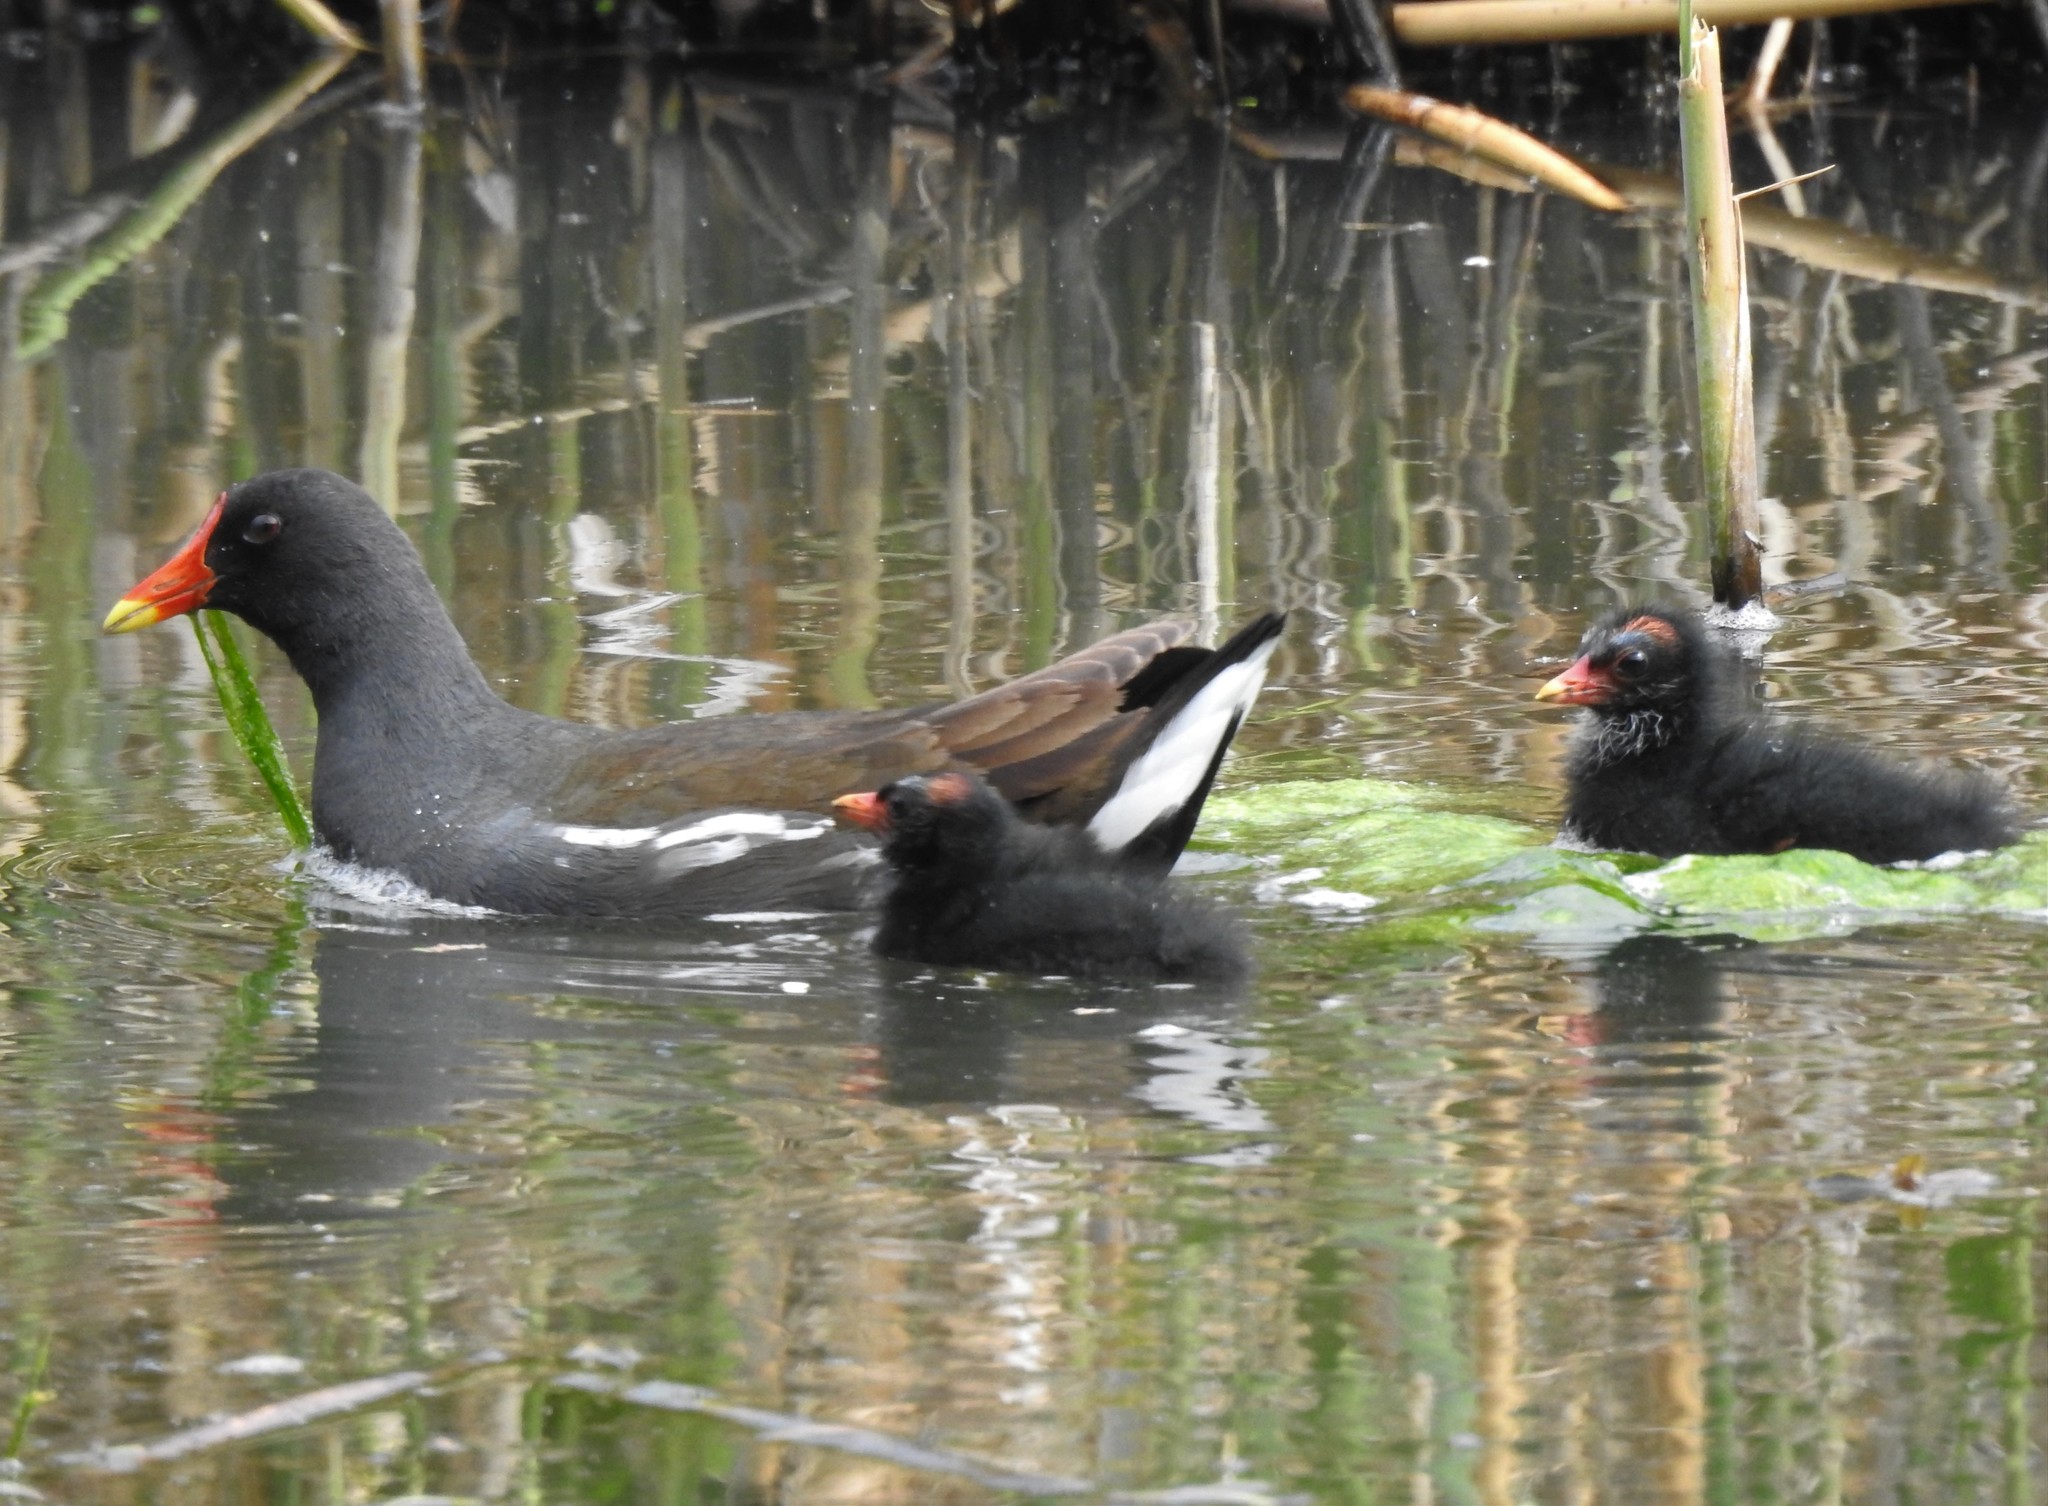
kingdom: Animalia
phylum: Chordata
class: Aves
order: Gruiformes
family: Rallidae
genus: Gallinula
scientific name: Gallinula chloropus
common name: Common moorhen
